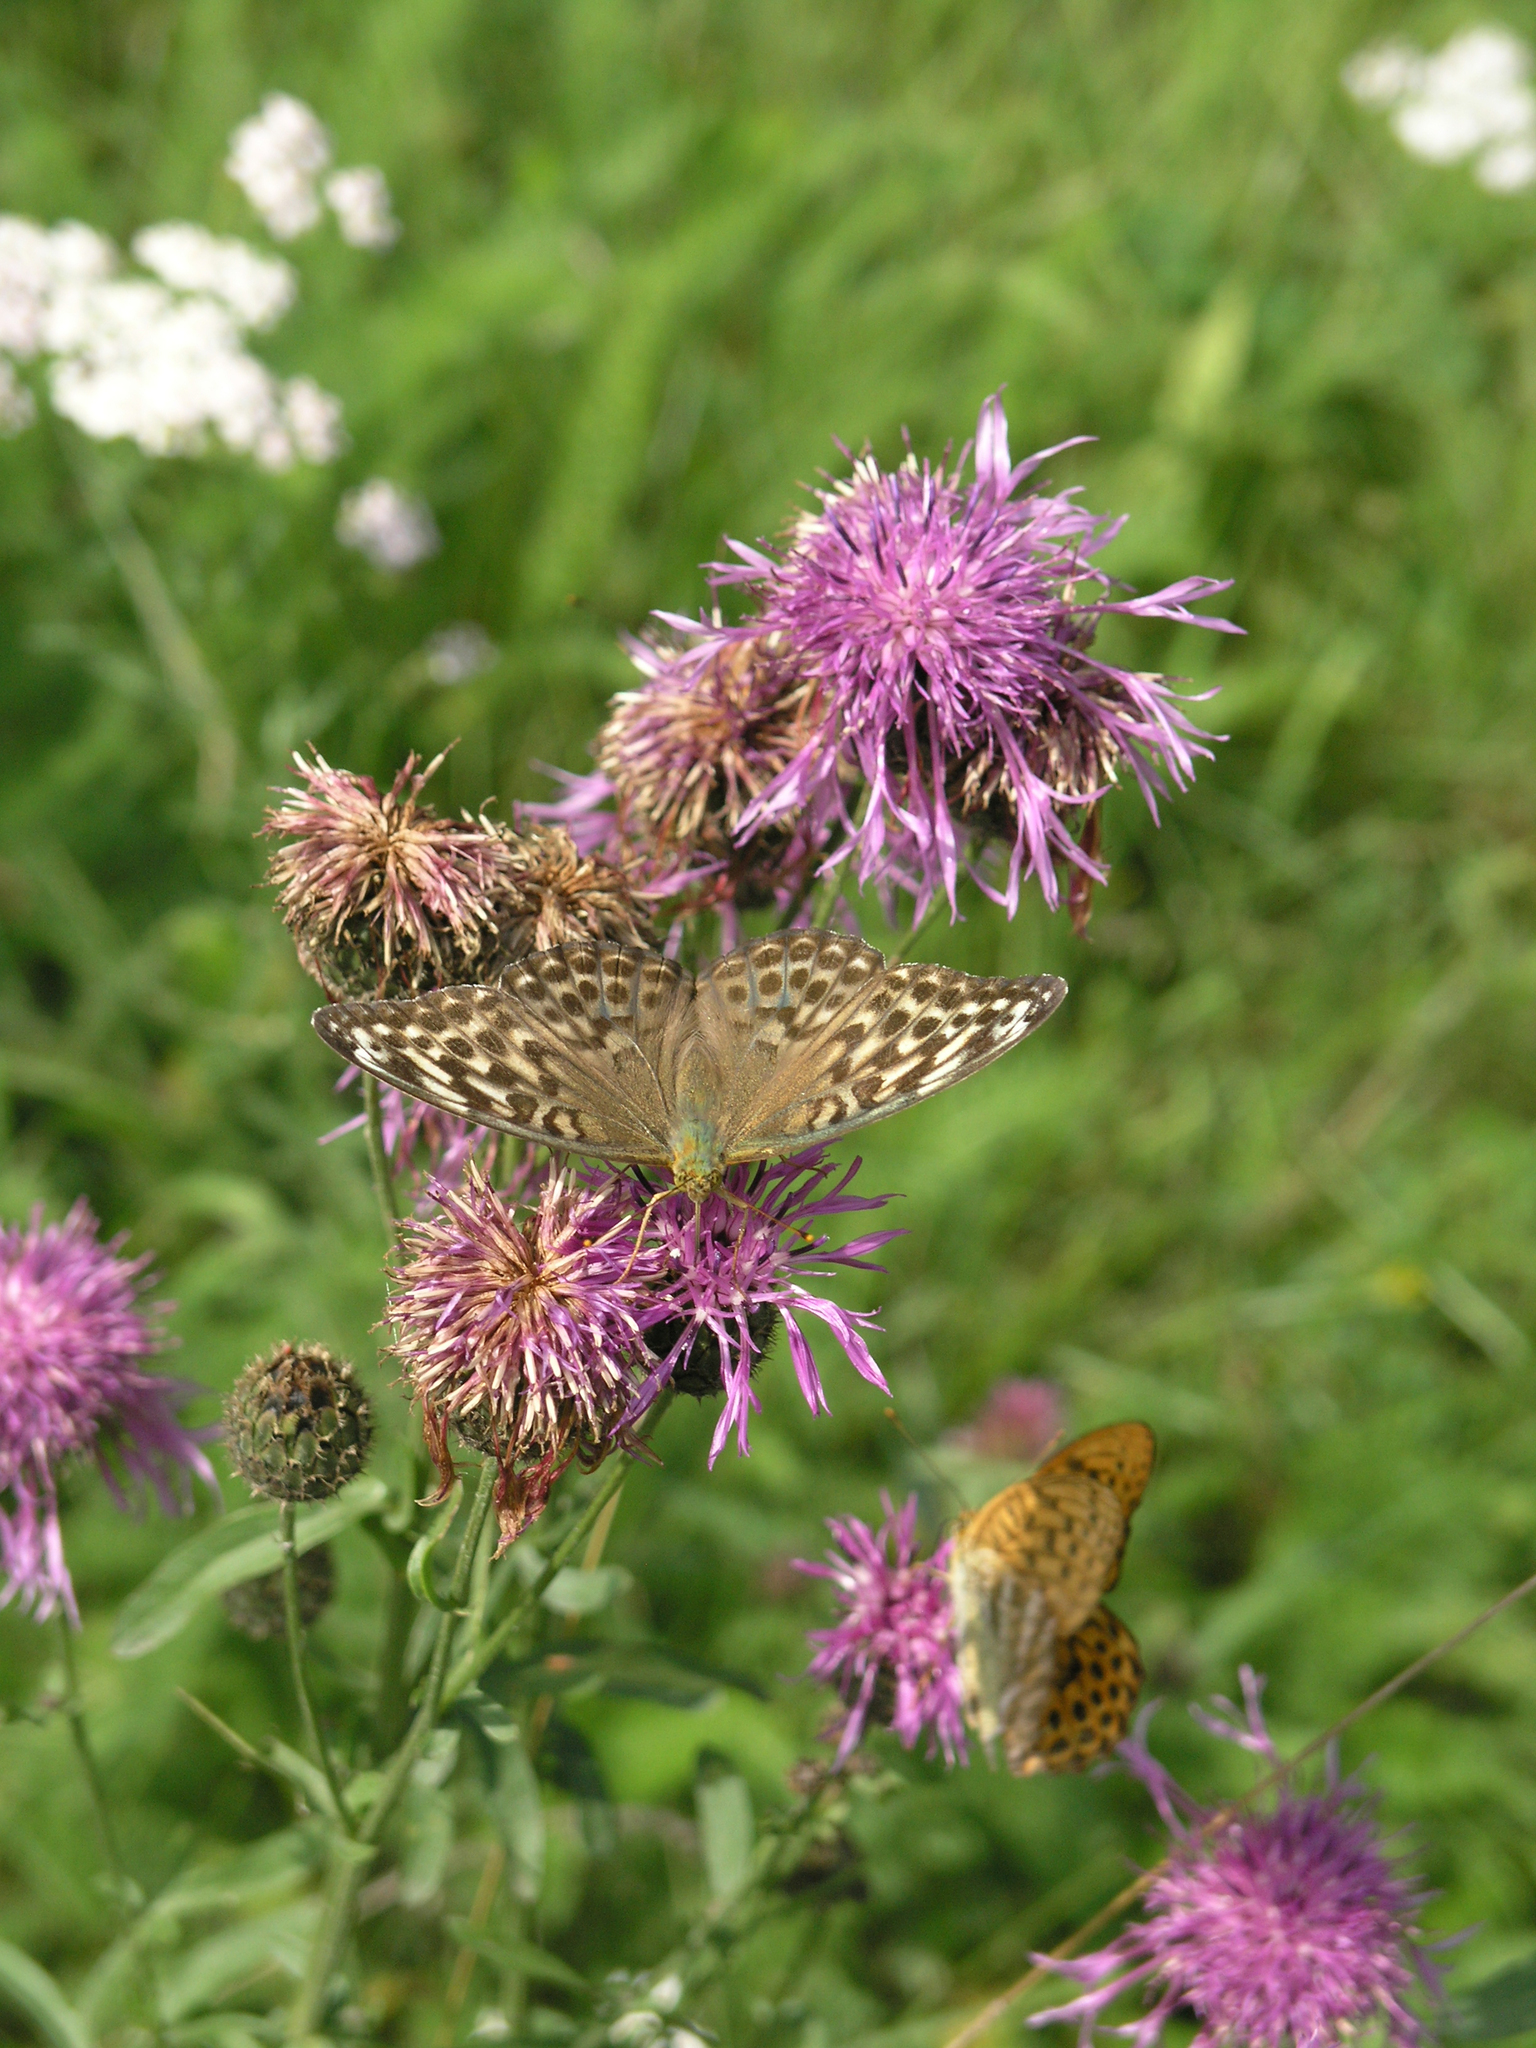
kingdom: Animalia
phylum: Arthropoda
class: Insecta
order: Lepidoptera
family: Nymphalidae
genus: Argynnis
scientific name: Argynnis paphia
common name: Silver-washed fritillary
